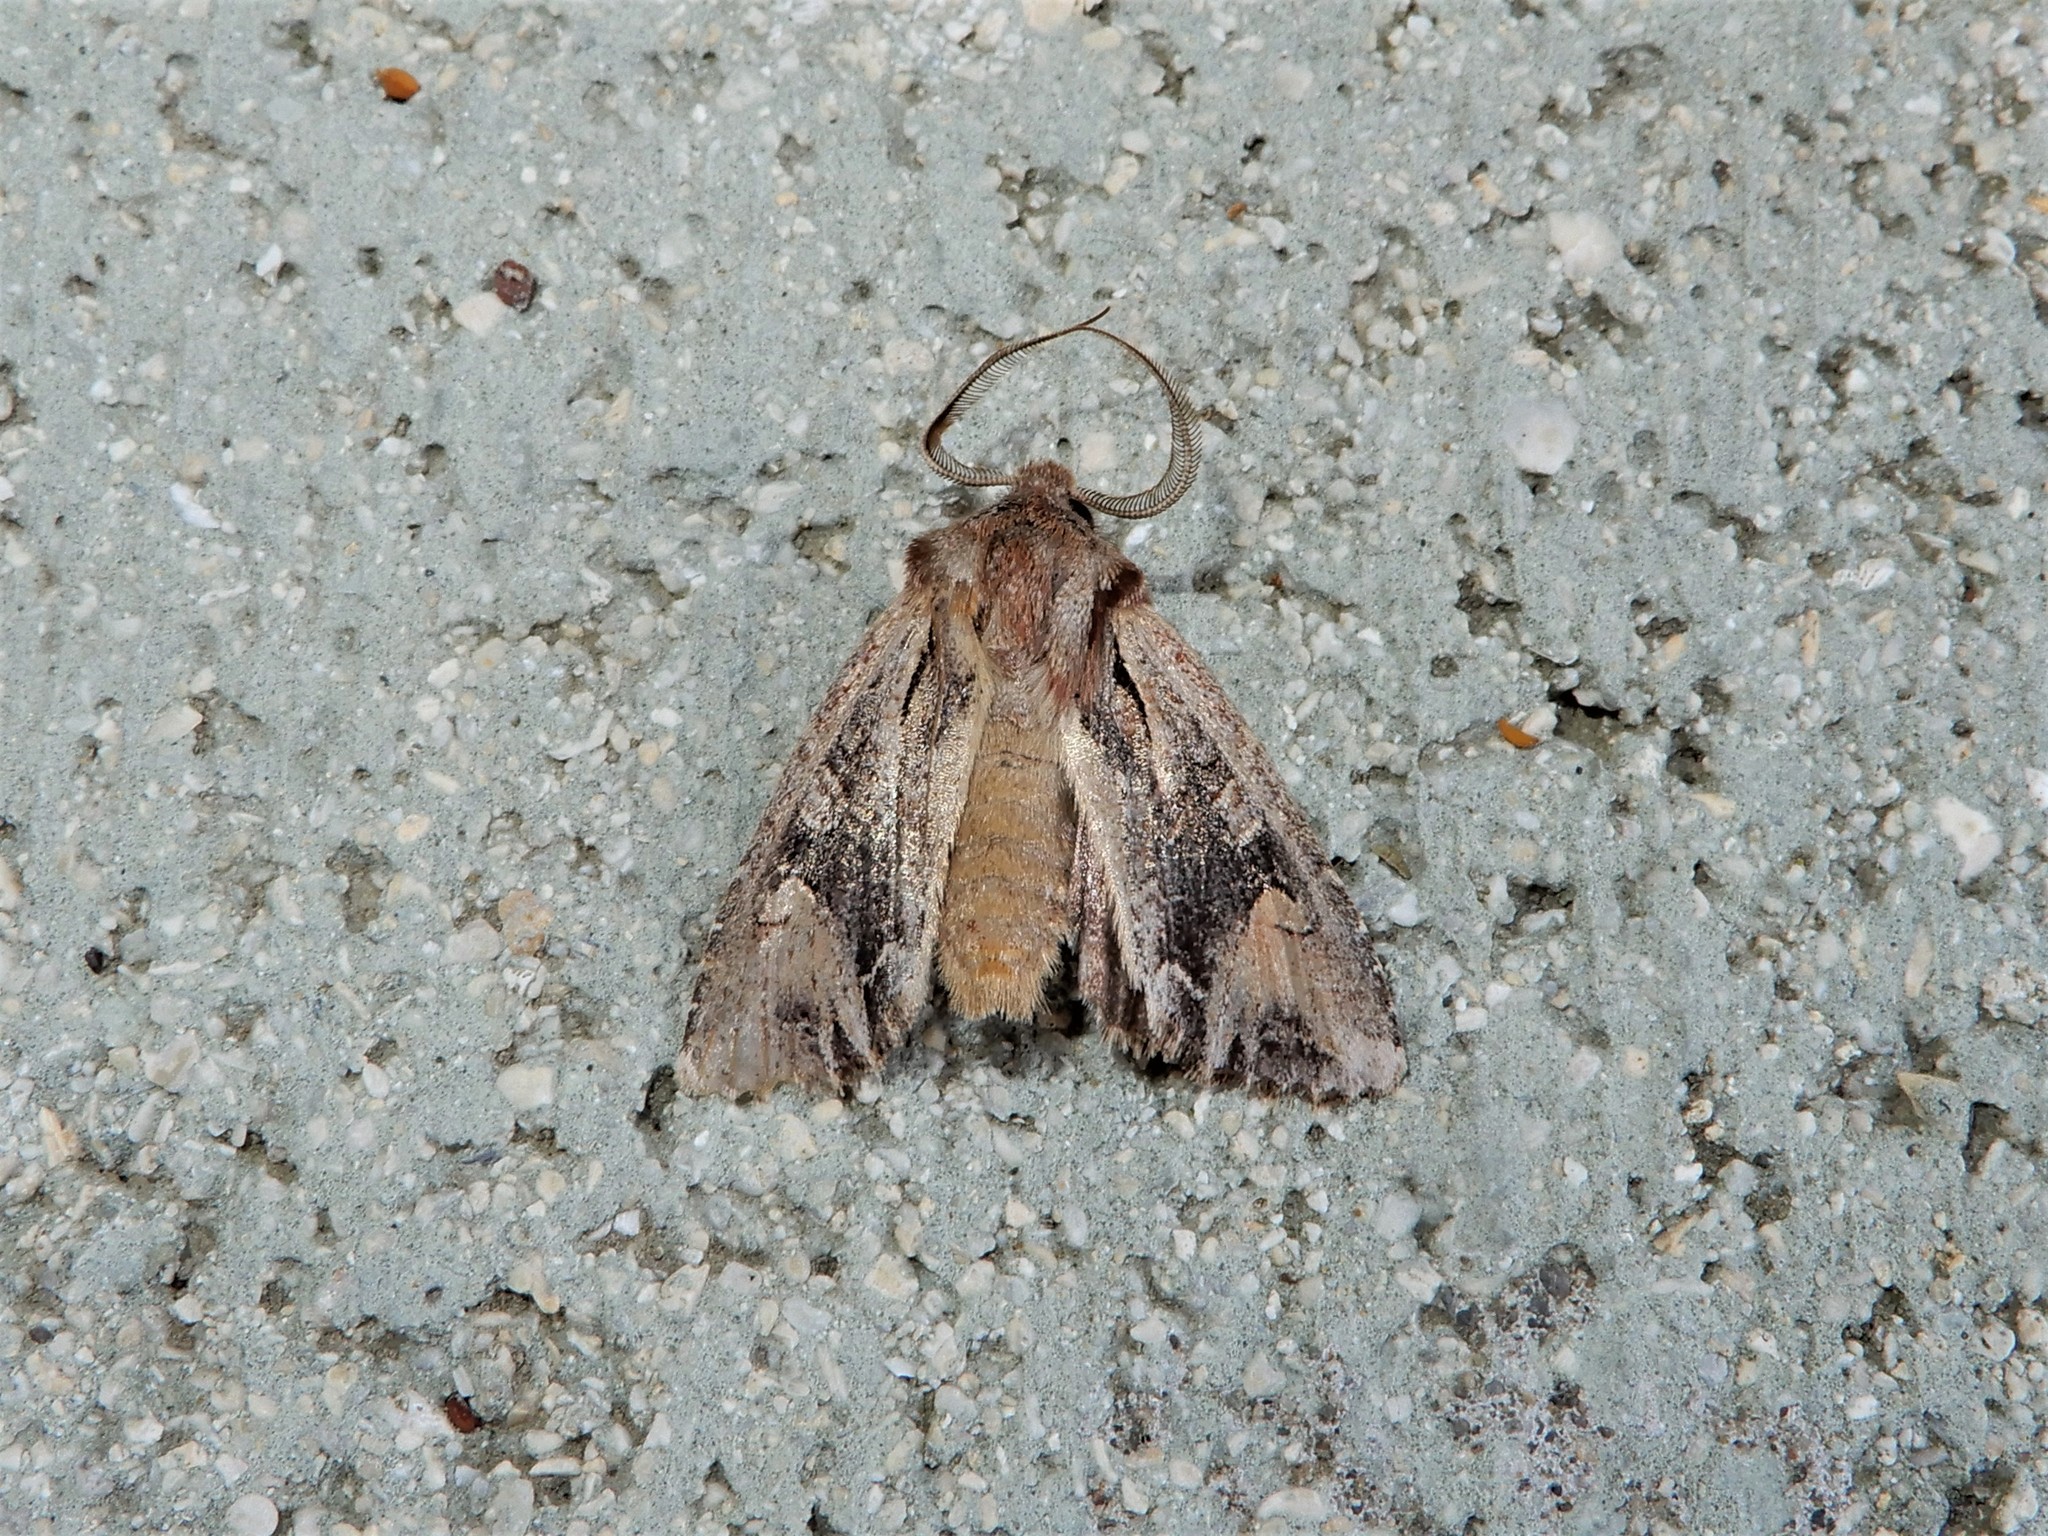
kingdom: Animalia
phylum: Arthropoda
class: Insecta
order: Lepidoptera
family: Noctuidae
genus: Ichneutica
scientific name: Ichneutica
